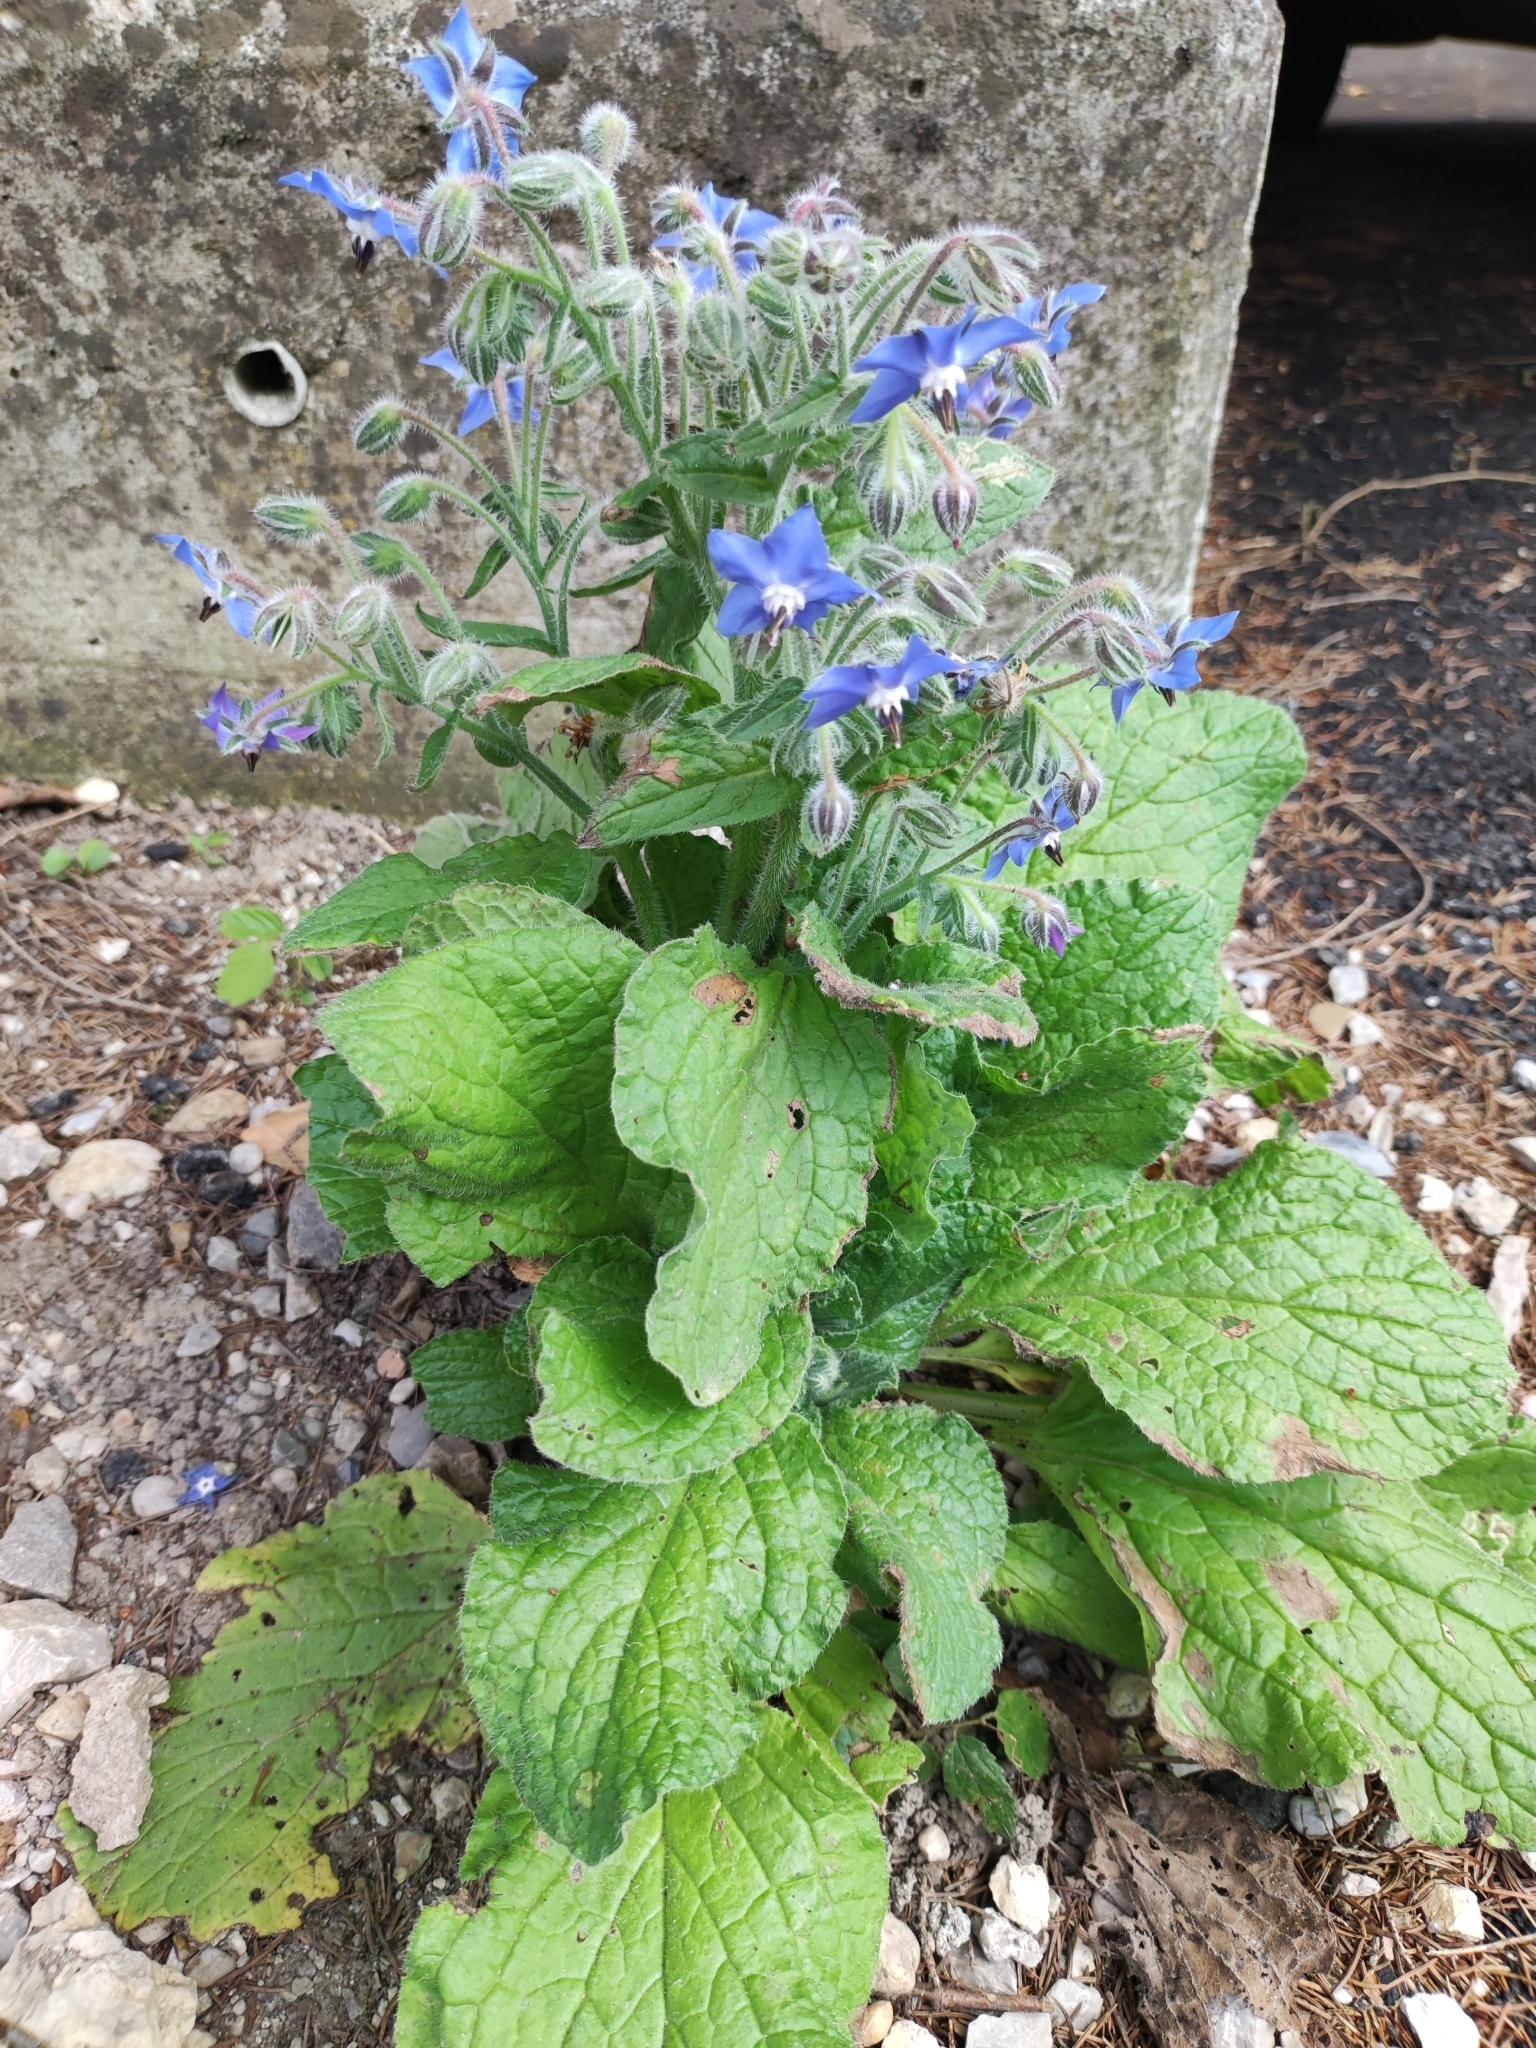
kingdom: Plantae
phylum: Tracheophyta
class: Magnoliopsida
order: Boraginales
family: Boraginaceae
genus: Borago
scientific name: Borago officinalis
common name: Borage
